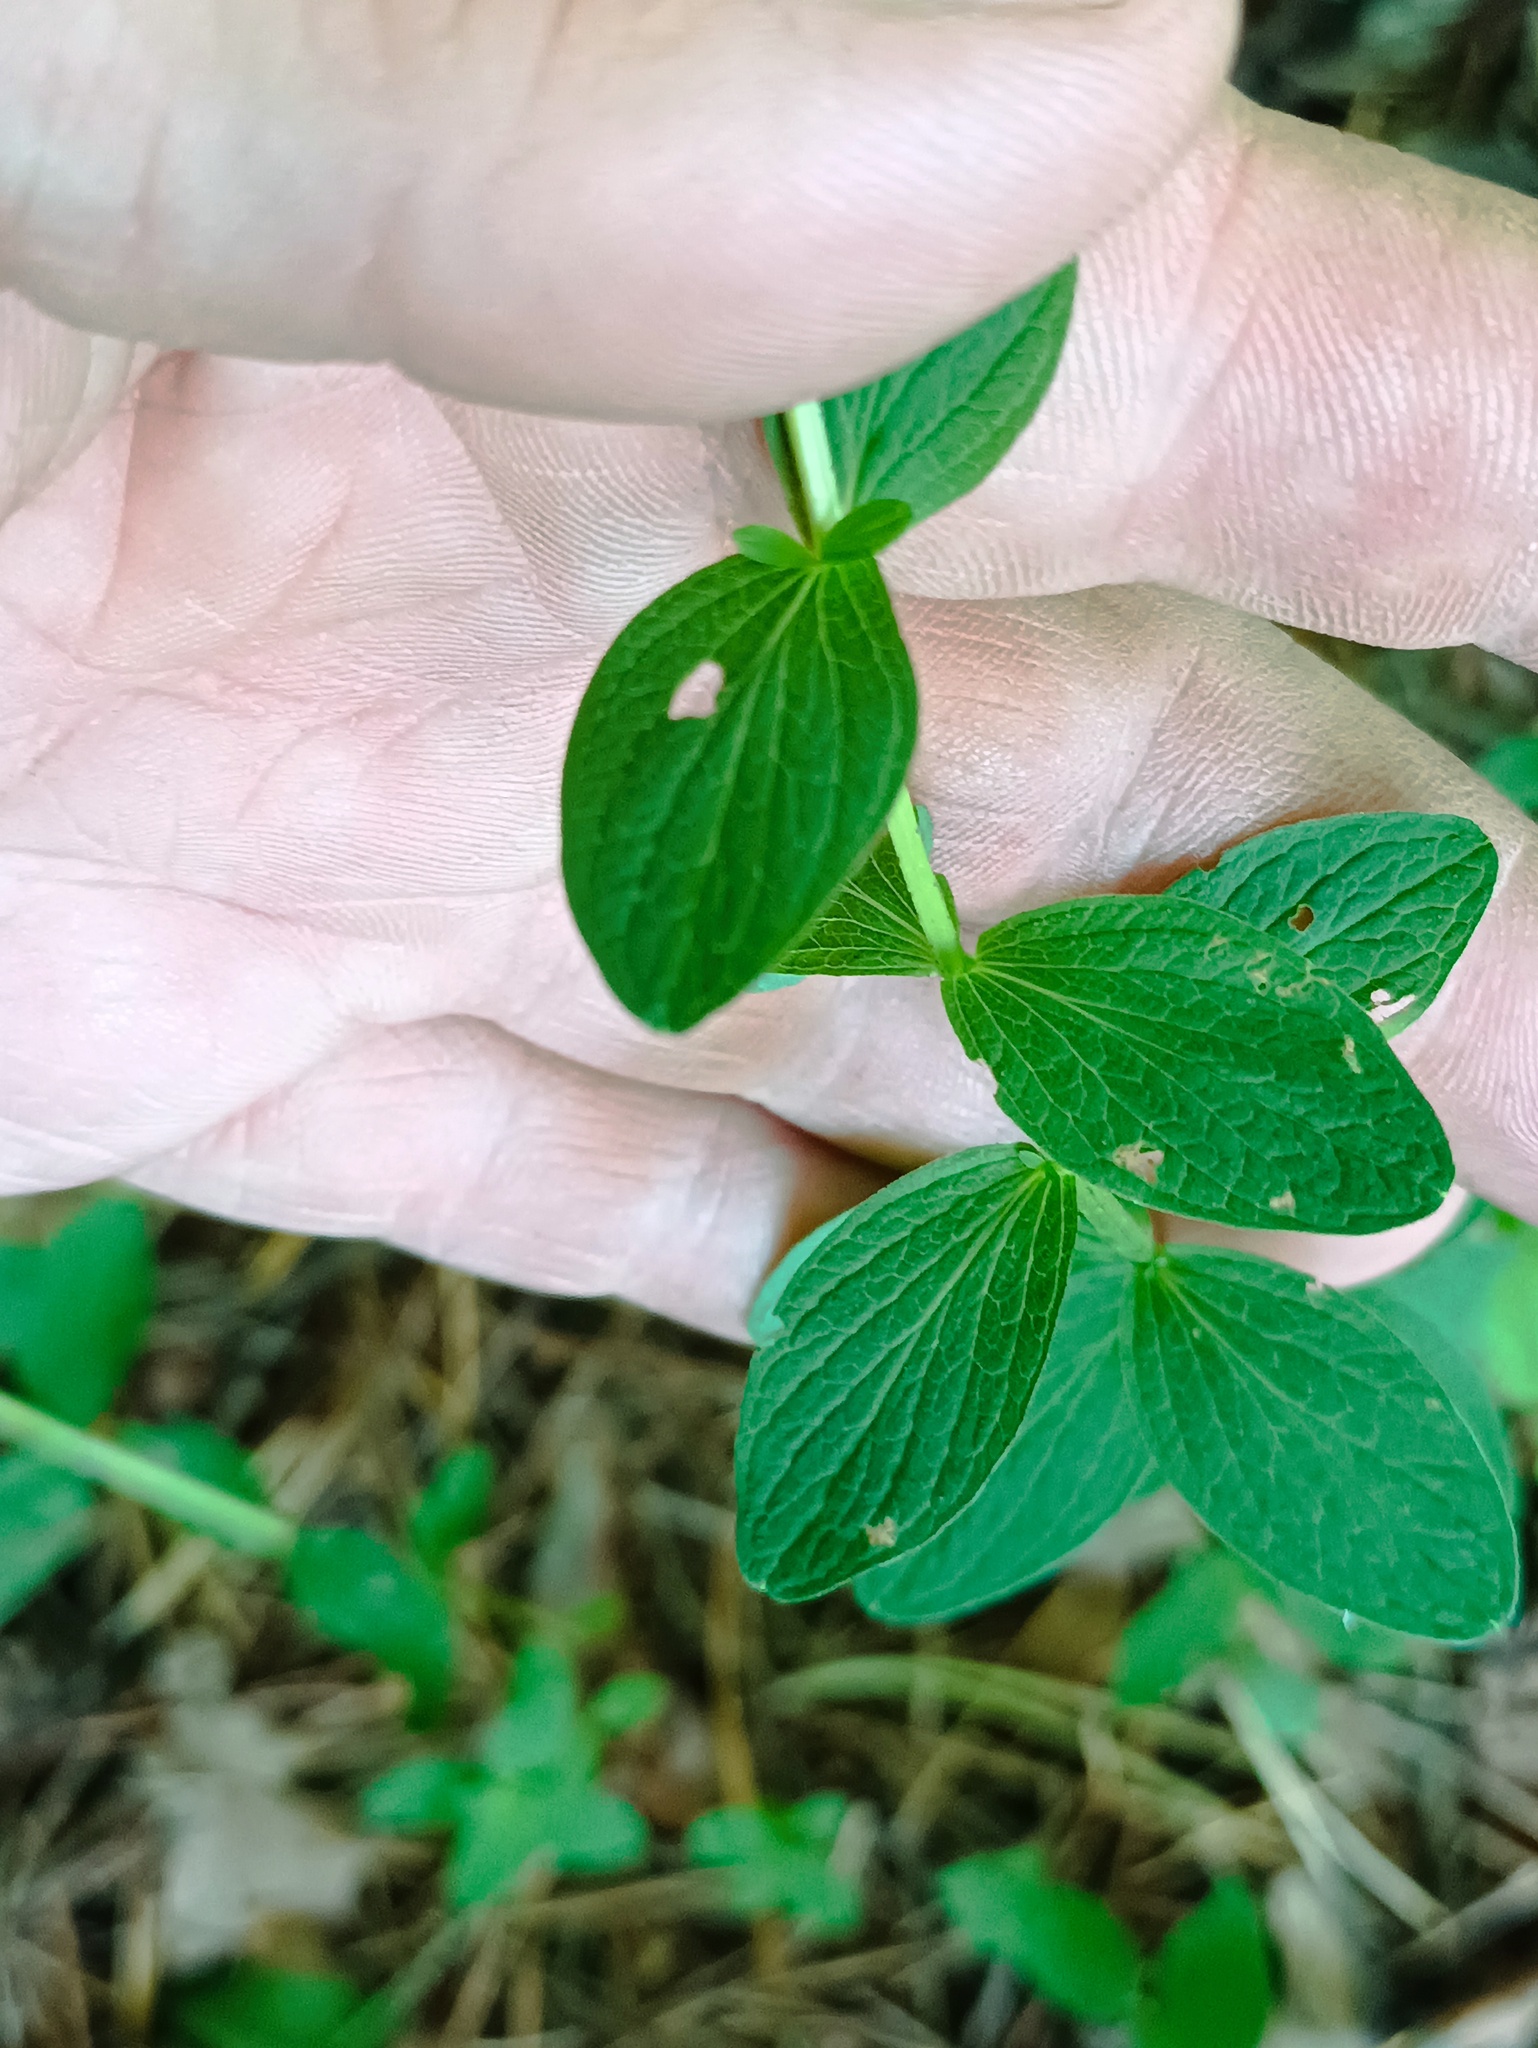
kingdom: Plantae
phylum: Tracheophyta
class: Magnoliopsida
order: Malpighiales
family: Hypericaceae
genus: Hypericum
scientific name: Hypericum maculatum
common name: Imperforate st. john's-wort
